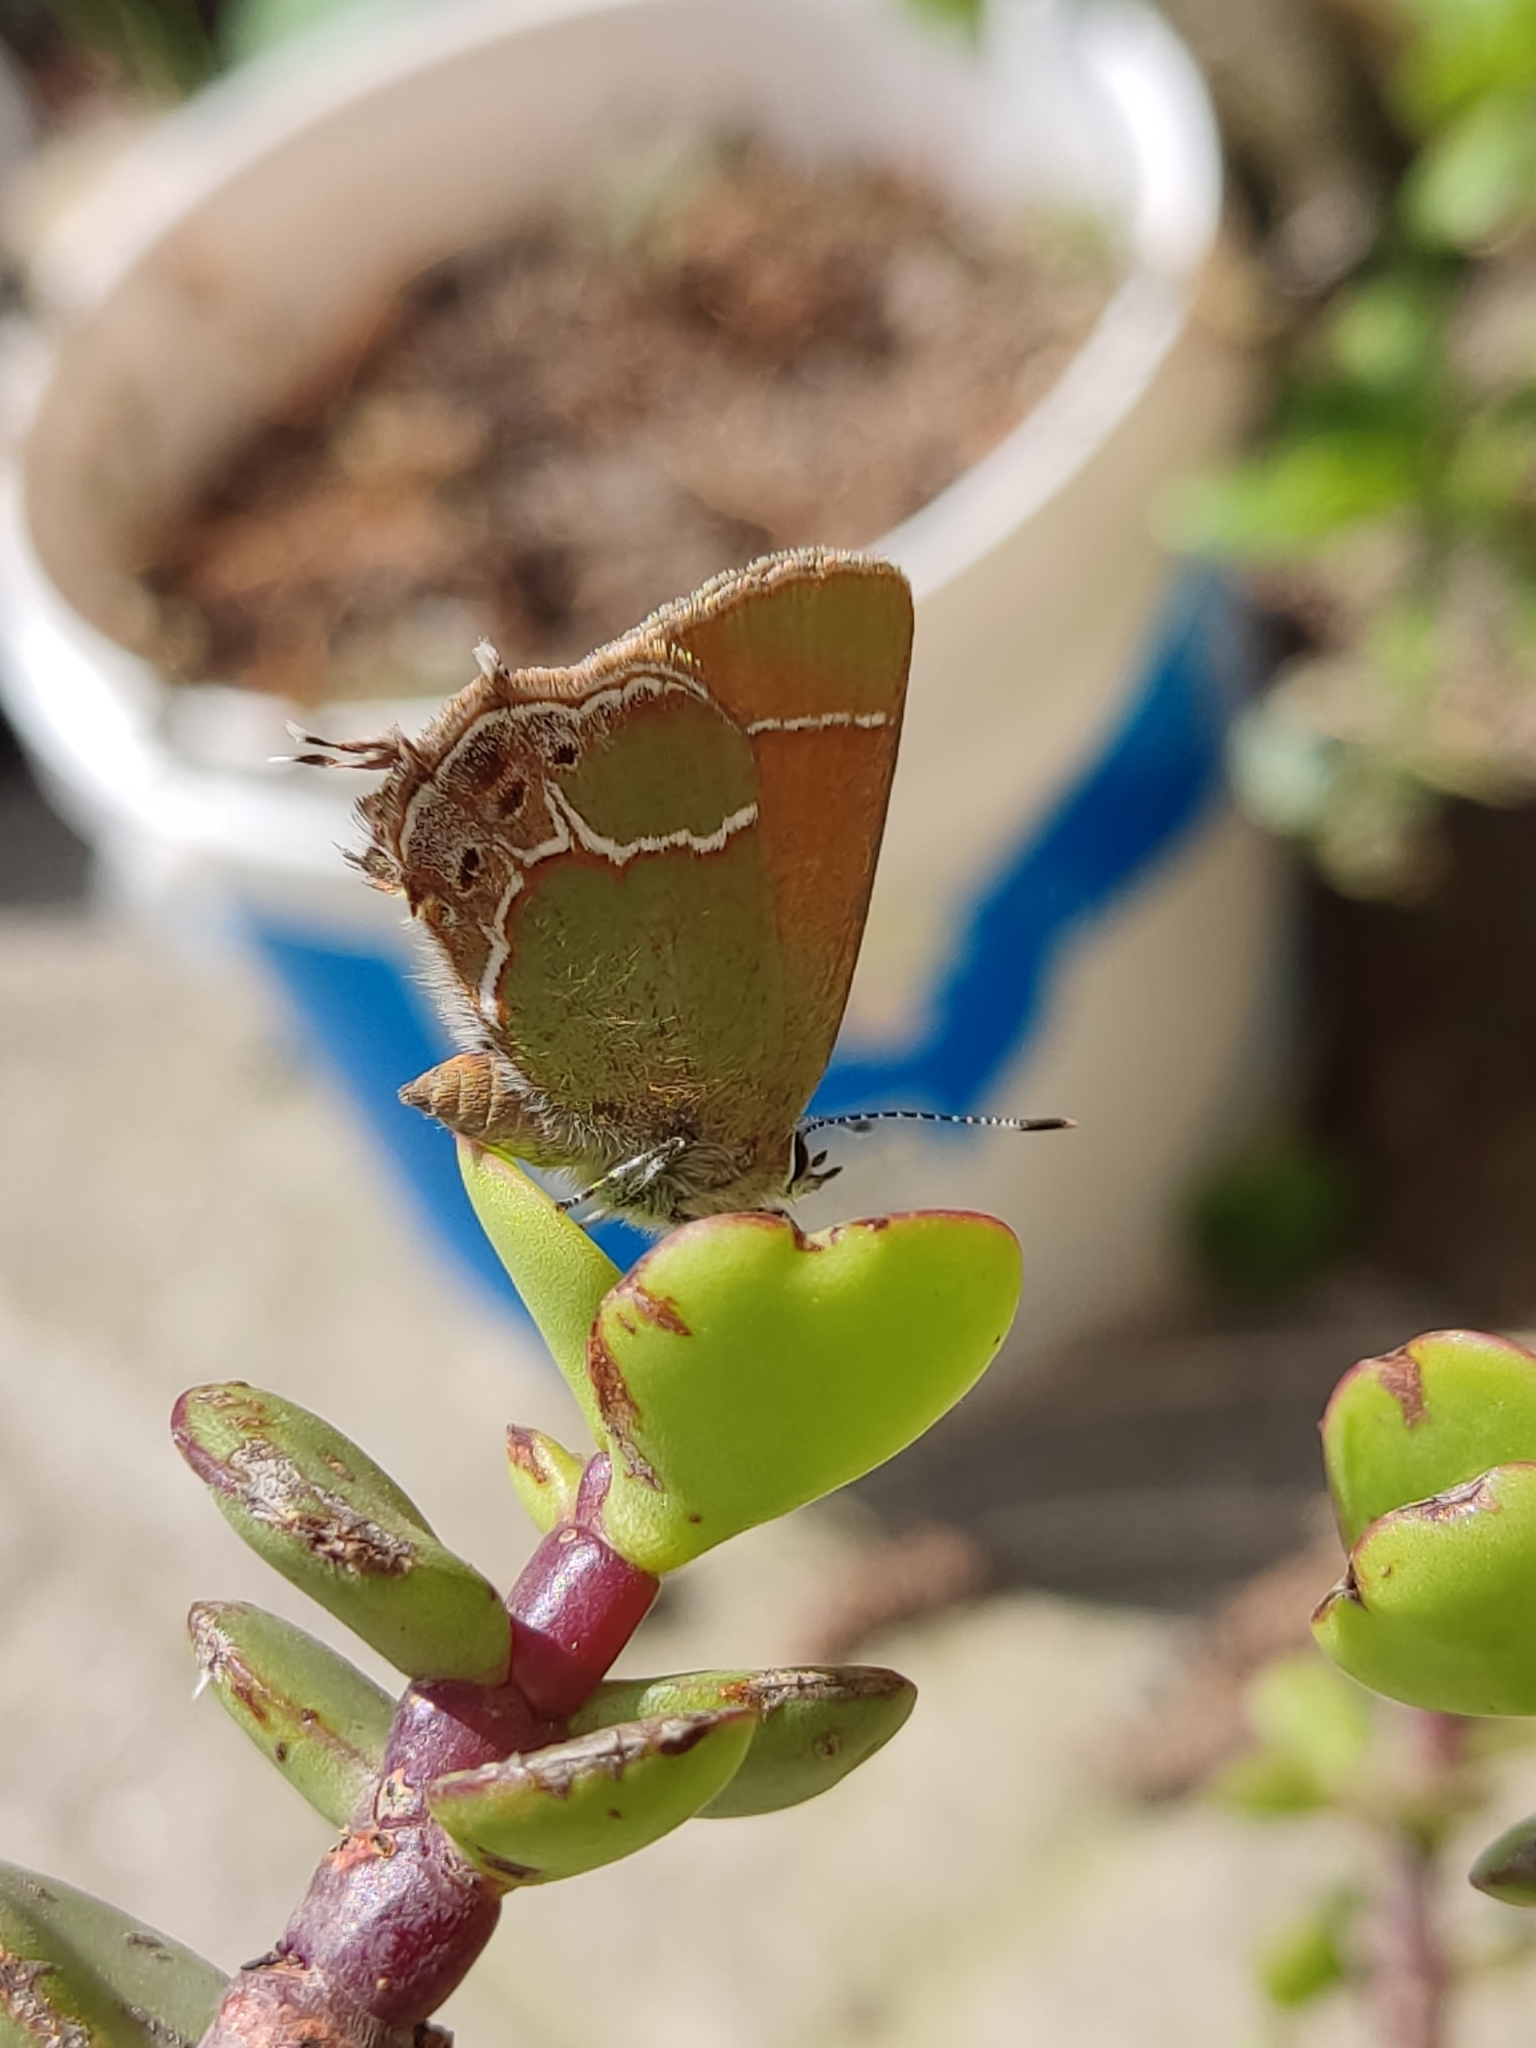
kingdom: Animalia
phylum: Arthropoda
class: Insecta
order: Lepidoptera
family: Lycaenidae
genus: Xamia
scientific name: Xamia xami
